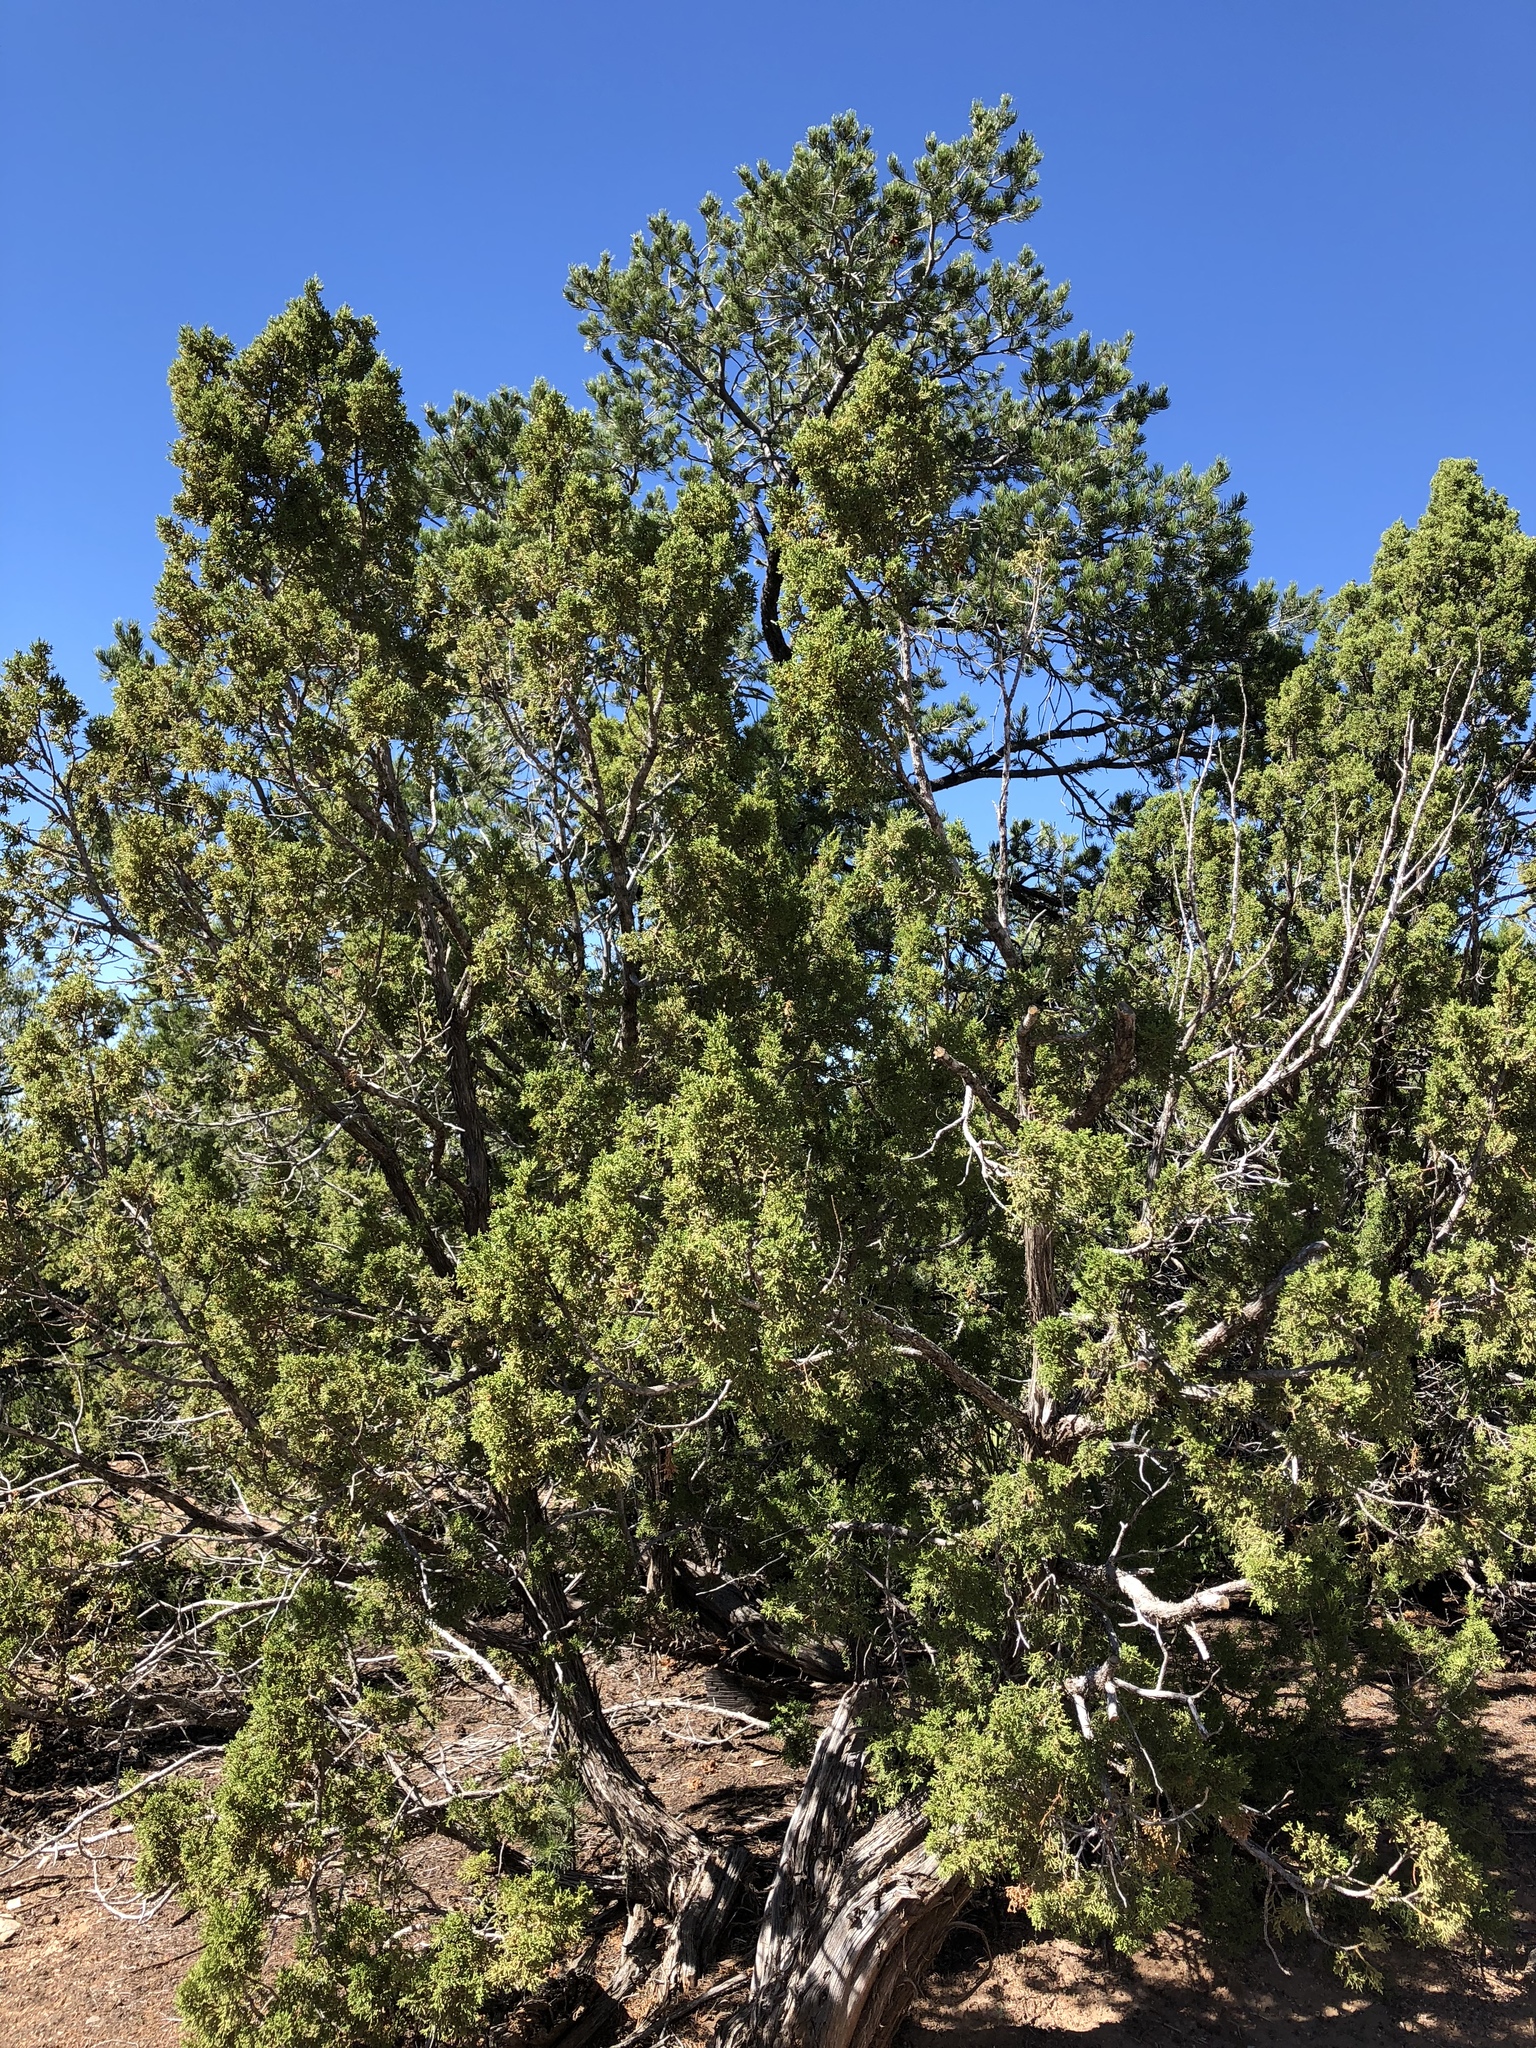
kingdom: Plantae
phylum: Tracheophyta
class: Pinopsida
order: Pinales
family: Cupressaceae
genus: Juniperus
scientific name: Juniperus monosperma
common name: One-seed juniper
